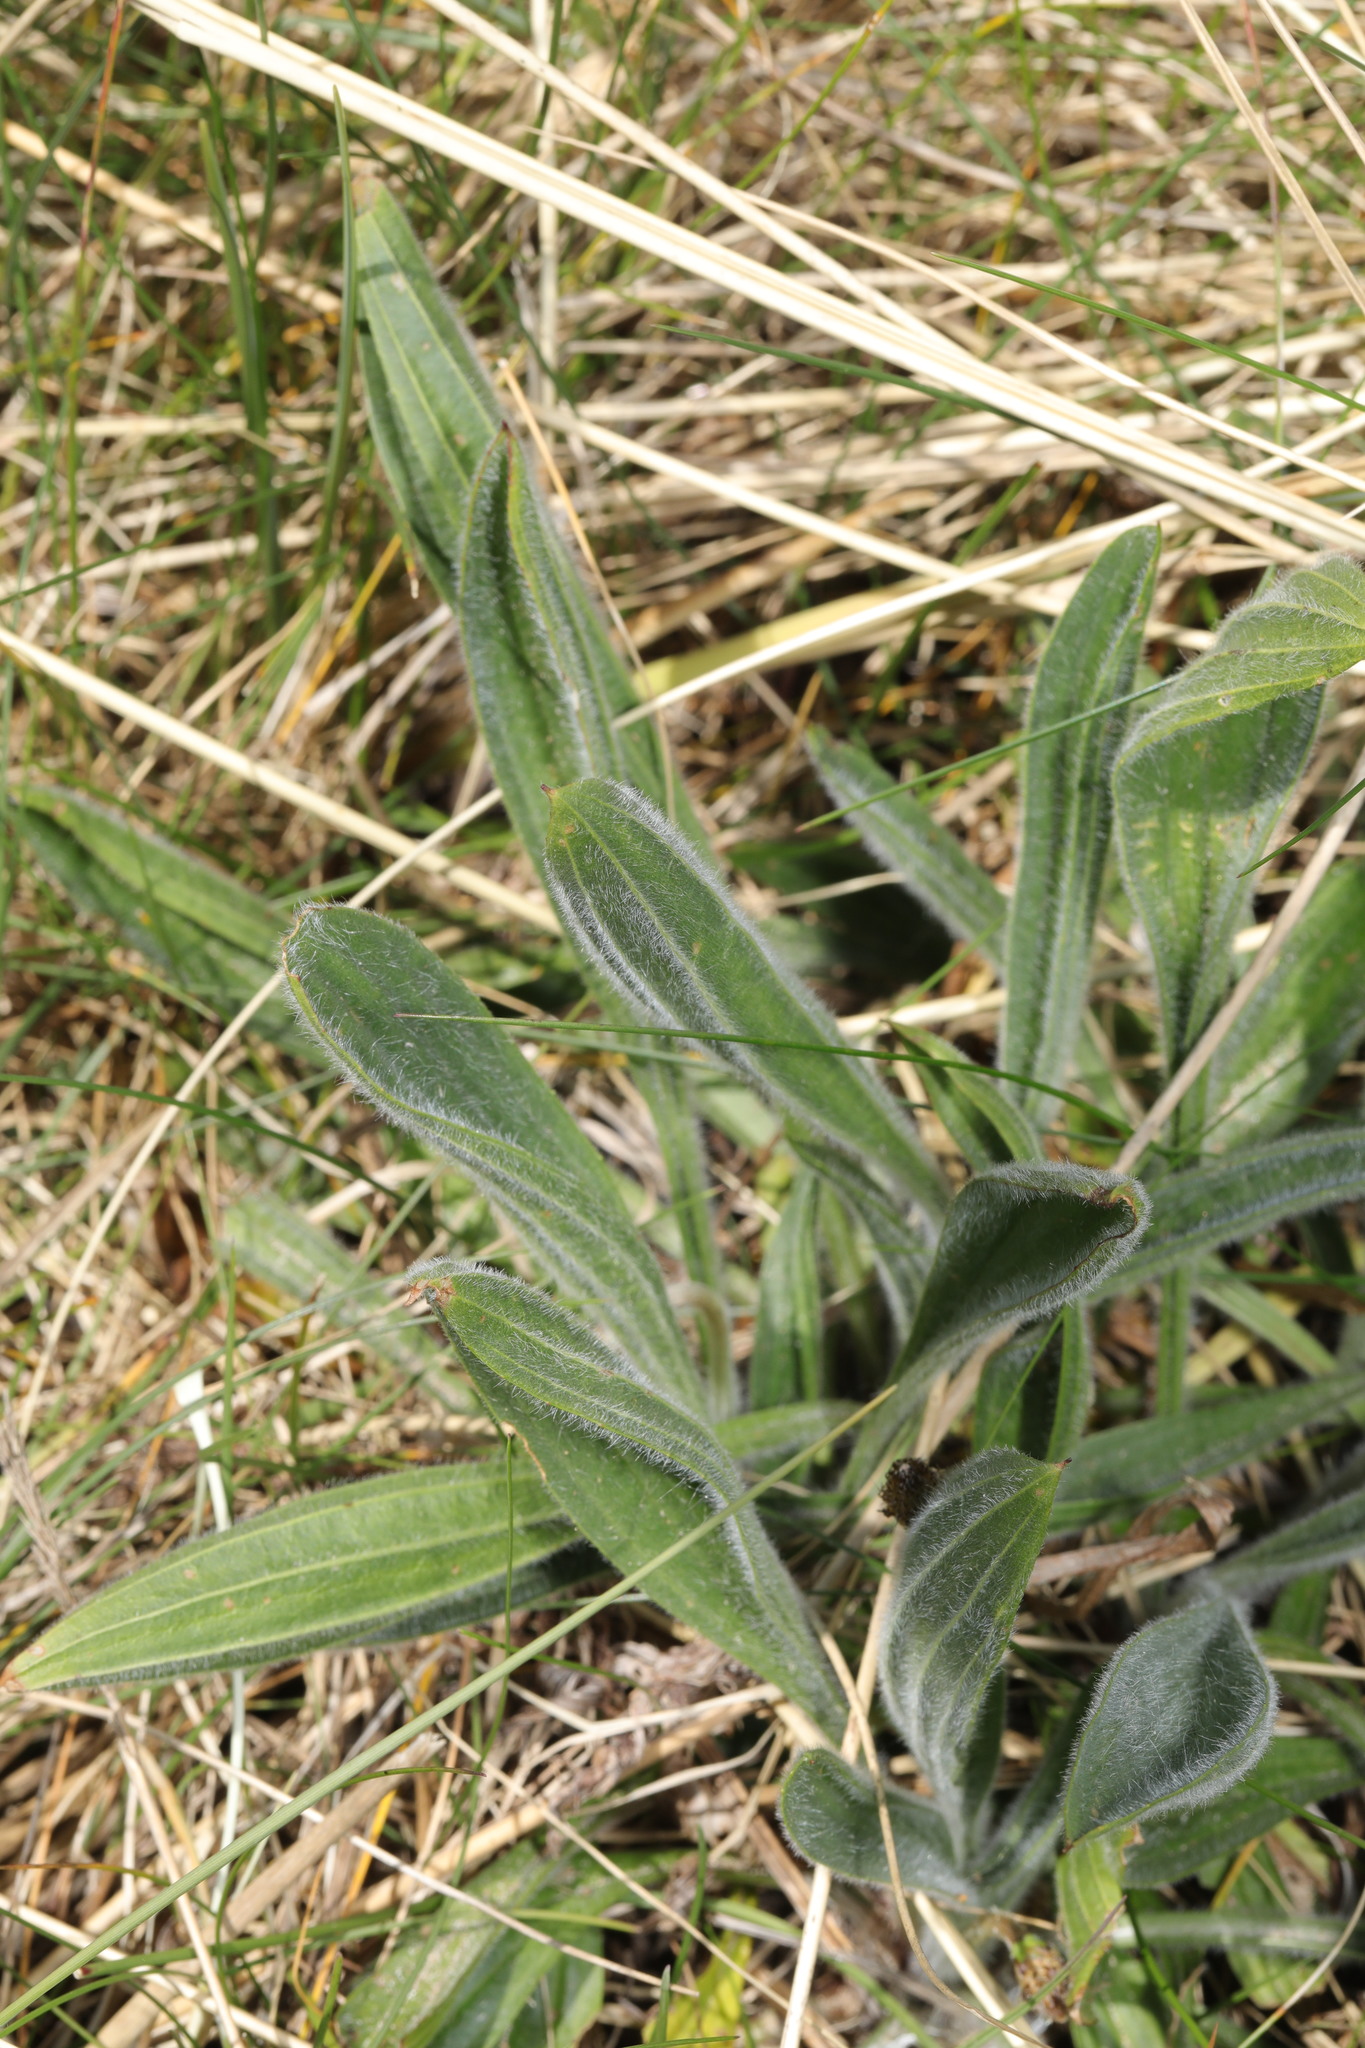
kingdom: Plantae
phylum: Tracheophyta
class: Magnoliopsida
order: Lamiales
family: Plantaginaceae
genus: Plantago
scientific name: Plantago lanceolata
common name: Ribwort plantain
